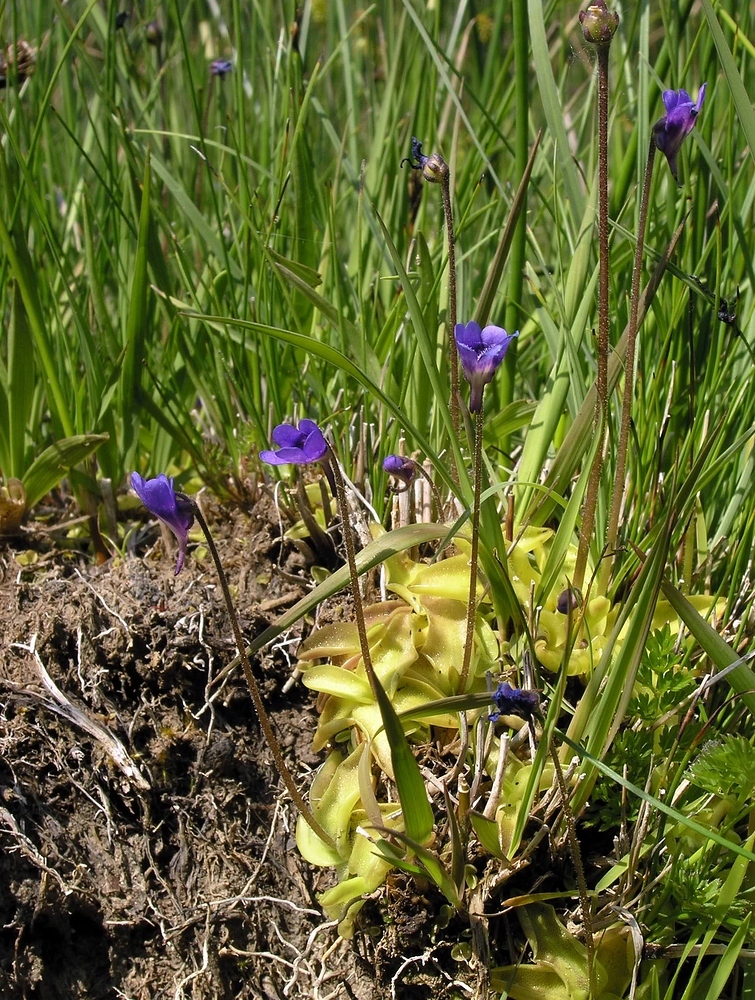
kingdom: Plantae
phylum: Tracheophyta
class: Magnoliopsida
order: Lamiales
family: Lentibulariaceae
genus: Pinguicula
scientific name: Pinguicula vulgaris
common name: Common butterwort
